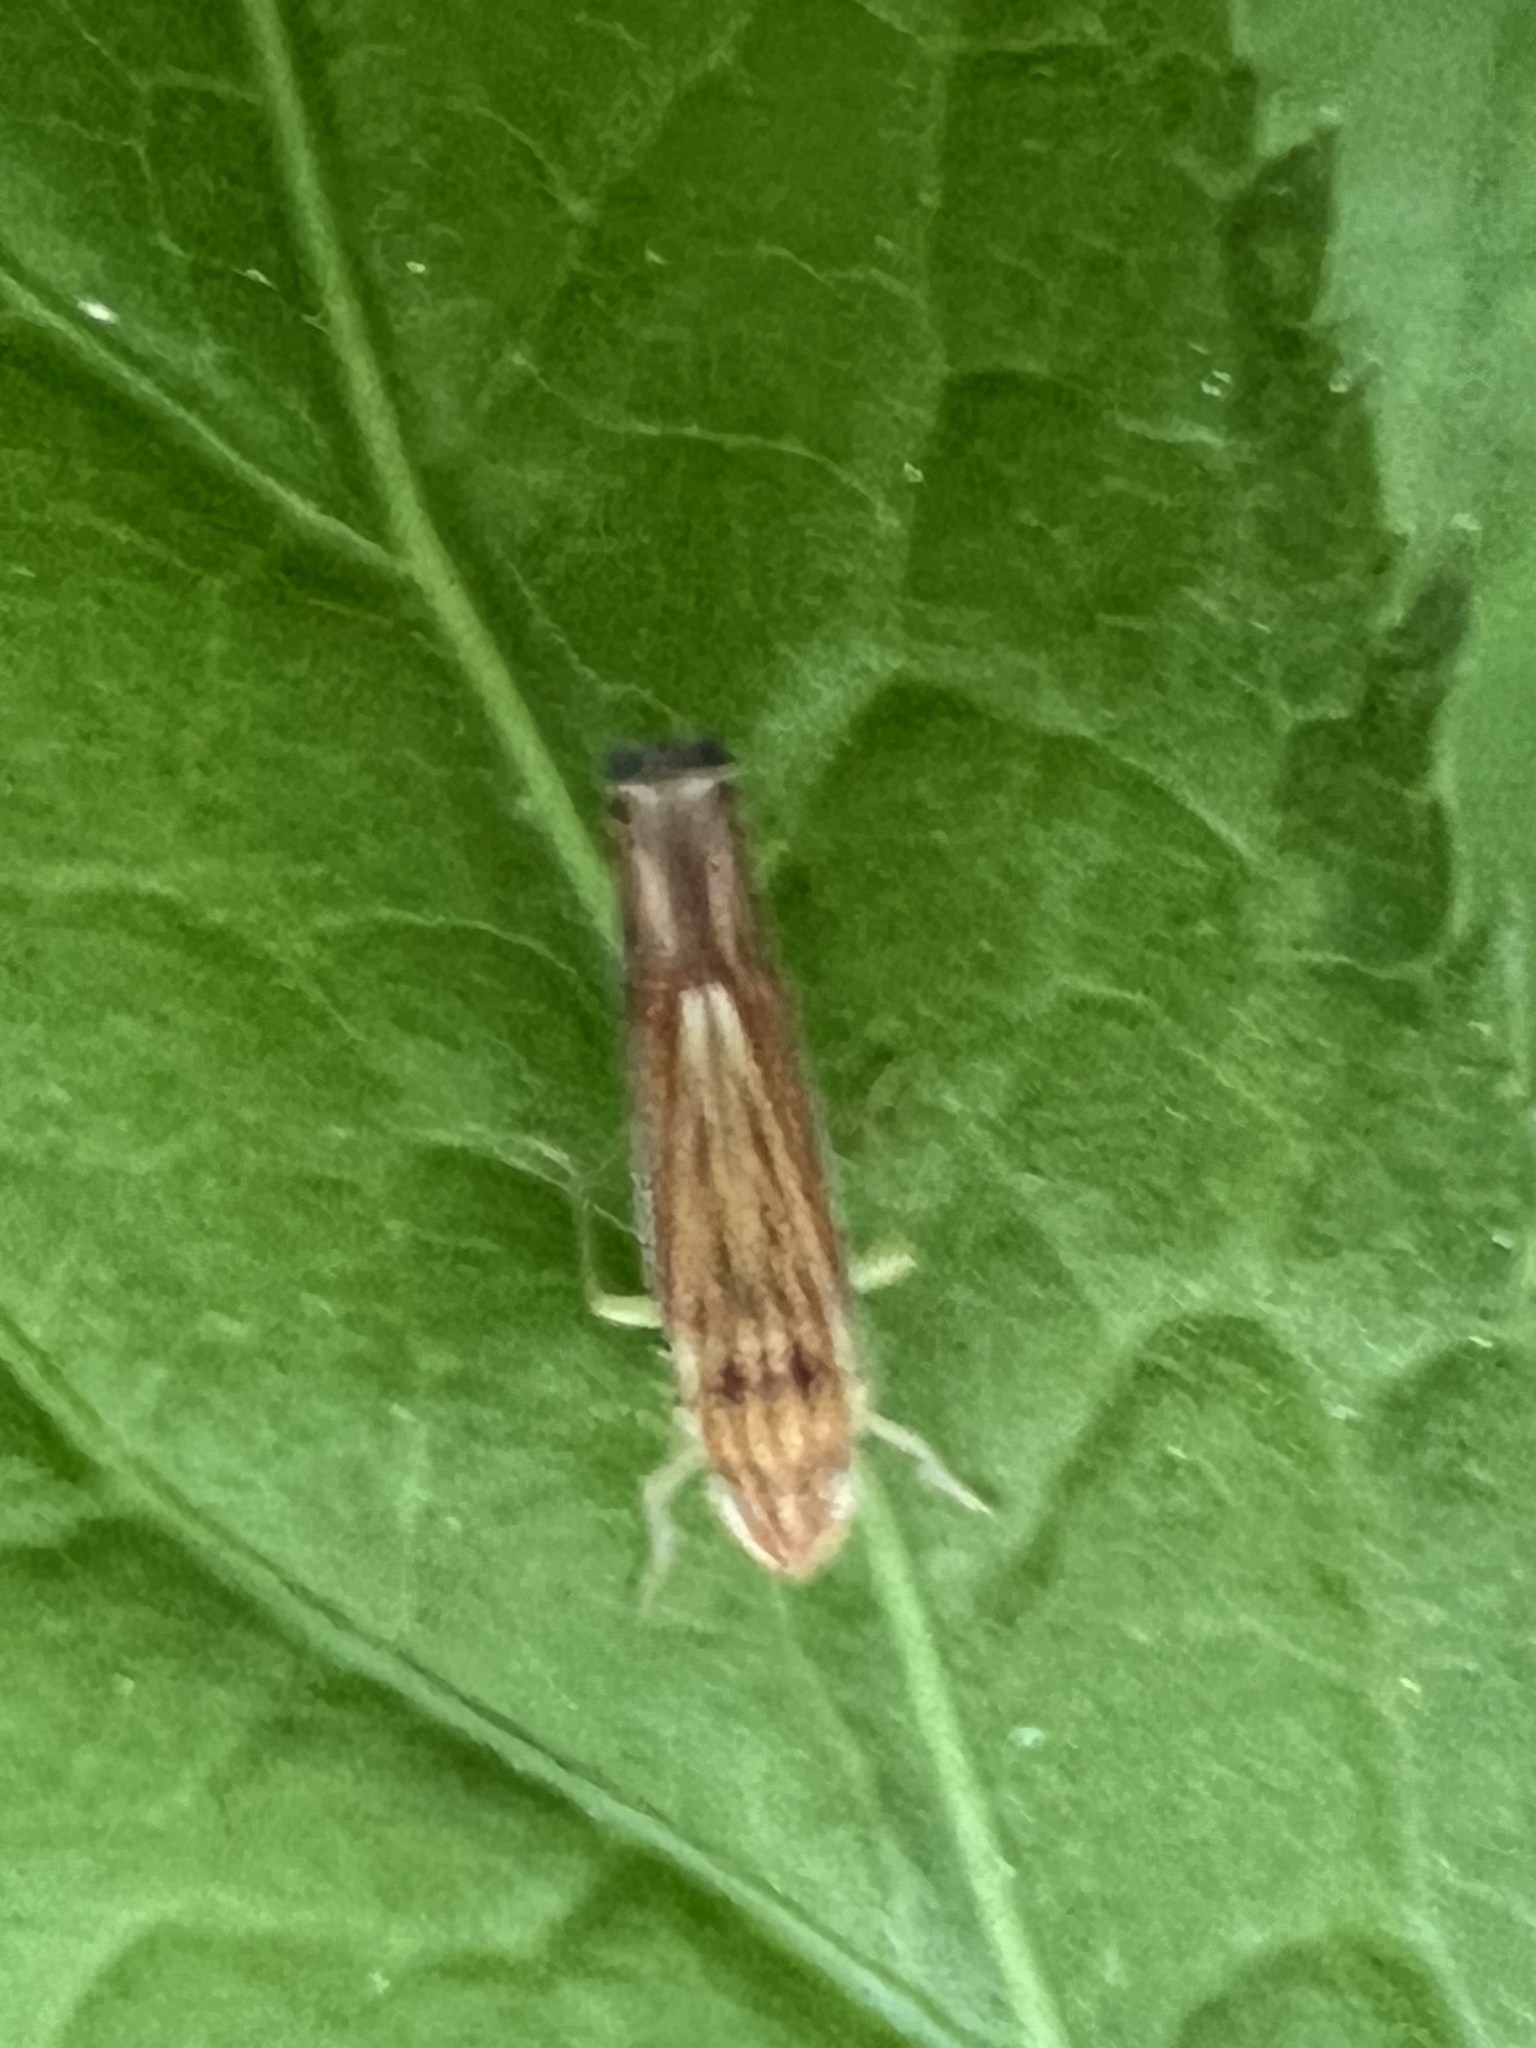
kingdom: Animalia
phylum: Arthropoda
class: Insecta
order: Hemiptera
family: Cicadellidae
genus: Sibovia
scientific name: Sibovia occatoria
